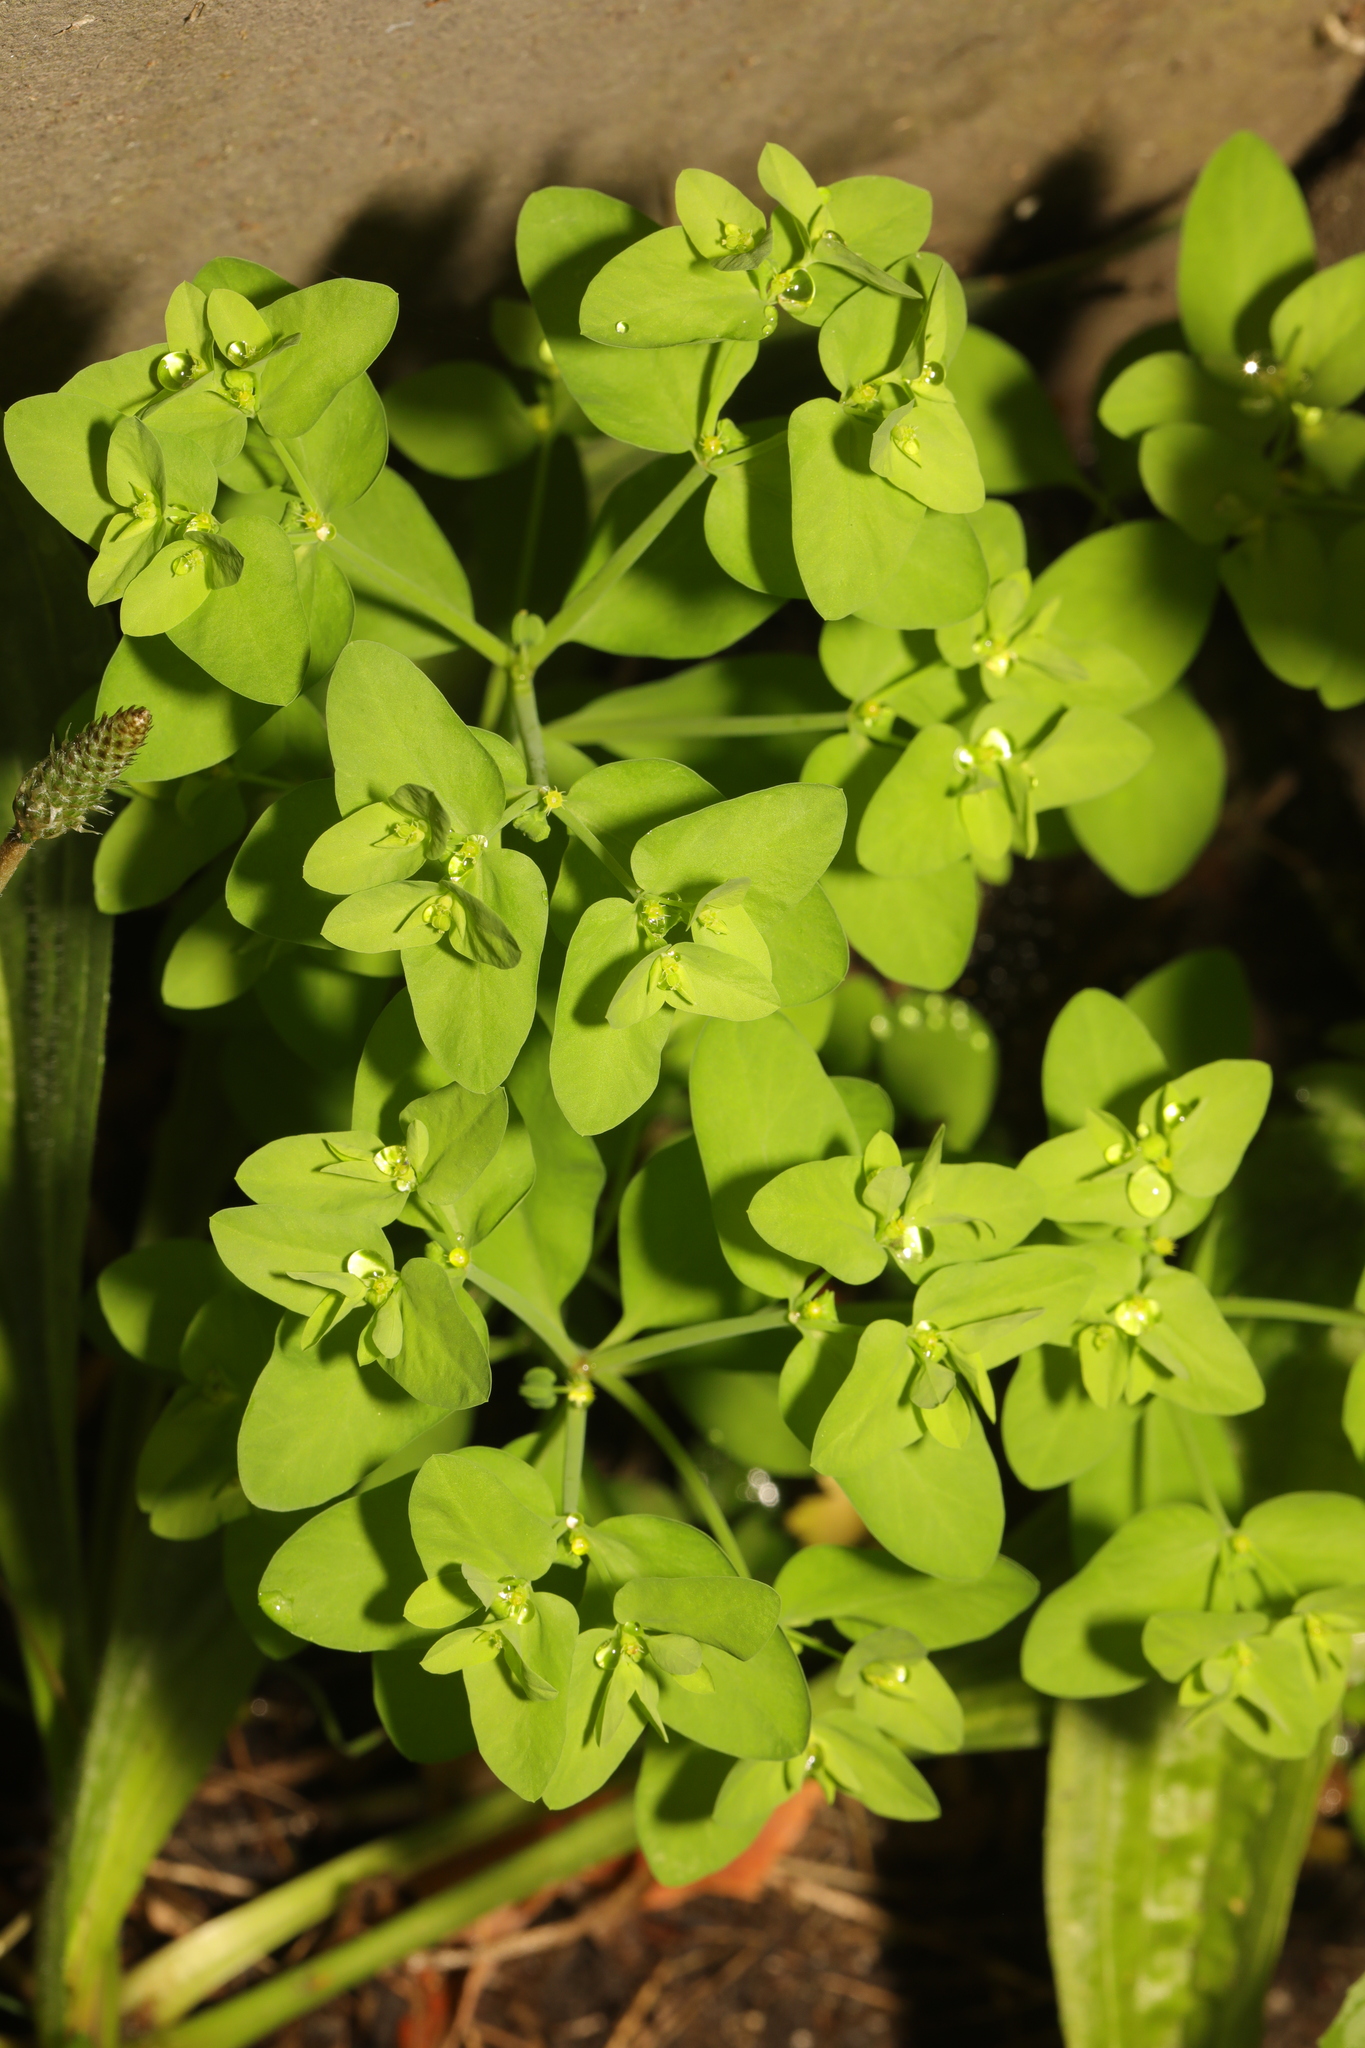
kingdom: Plantae
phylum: Tracheophyta
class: Magnoliopsida
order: Malpighiales
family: Euphorbiaceae
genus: Euphorbia
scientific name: Euphorbia peplus
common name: Petty spurge
